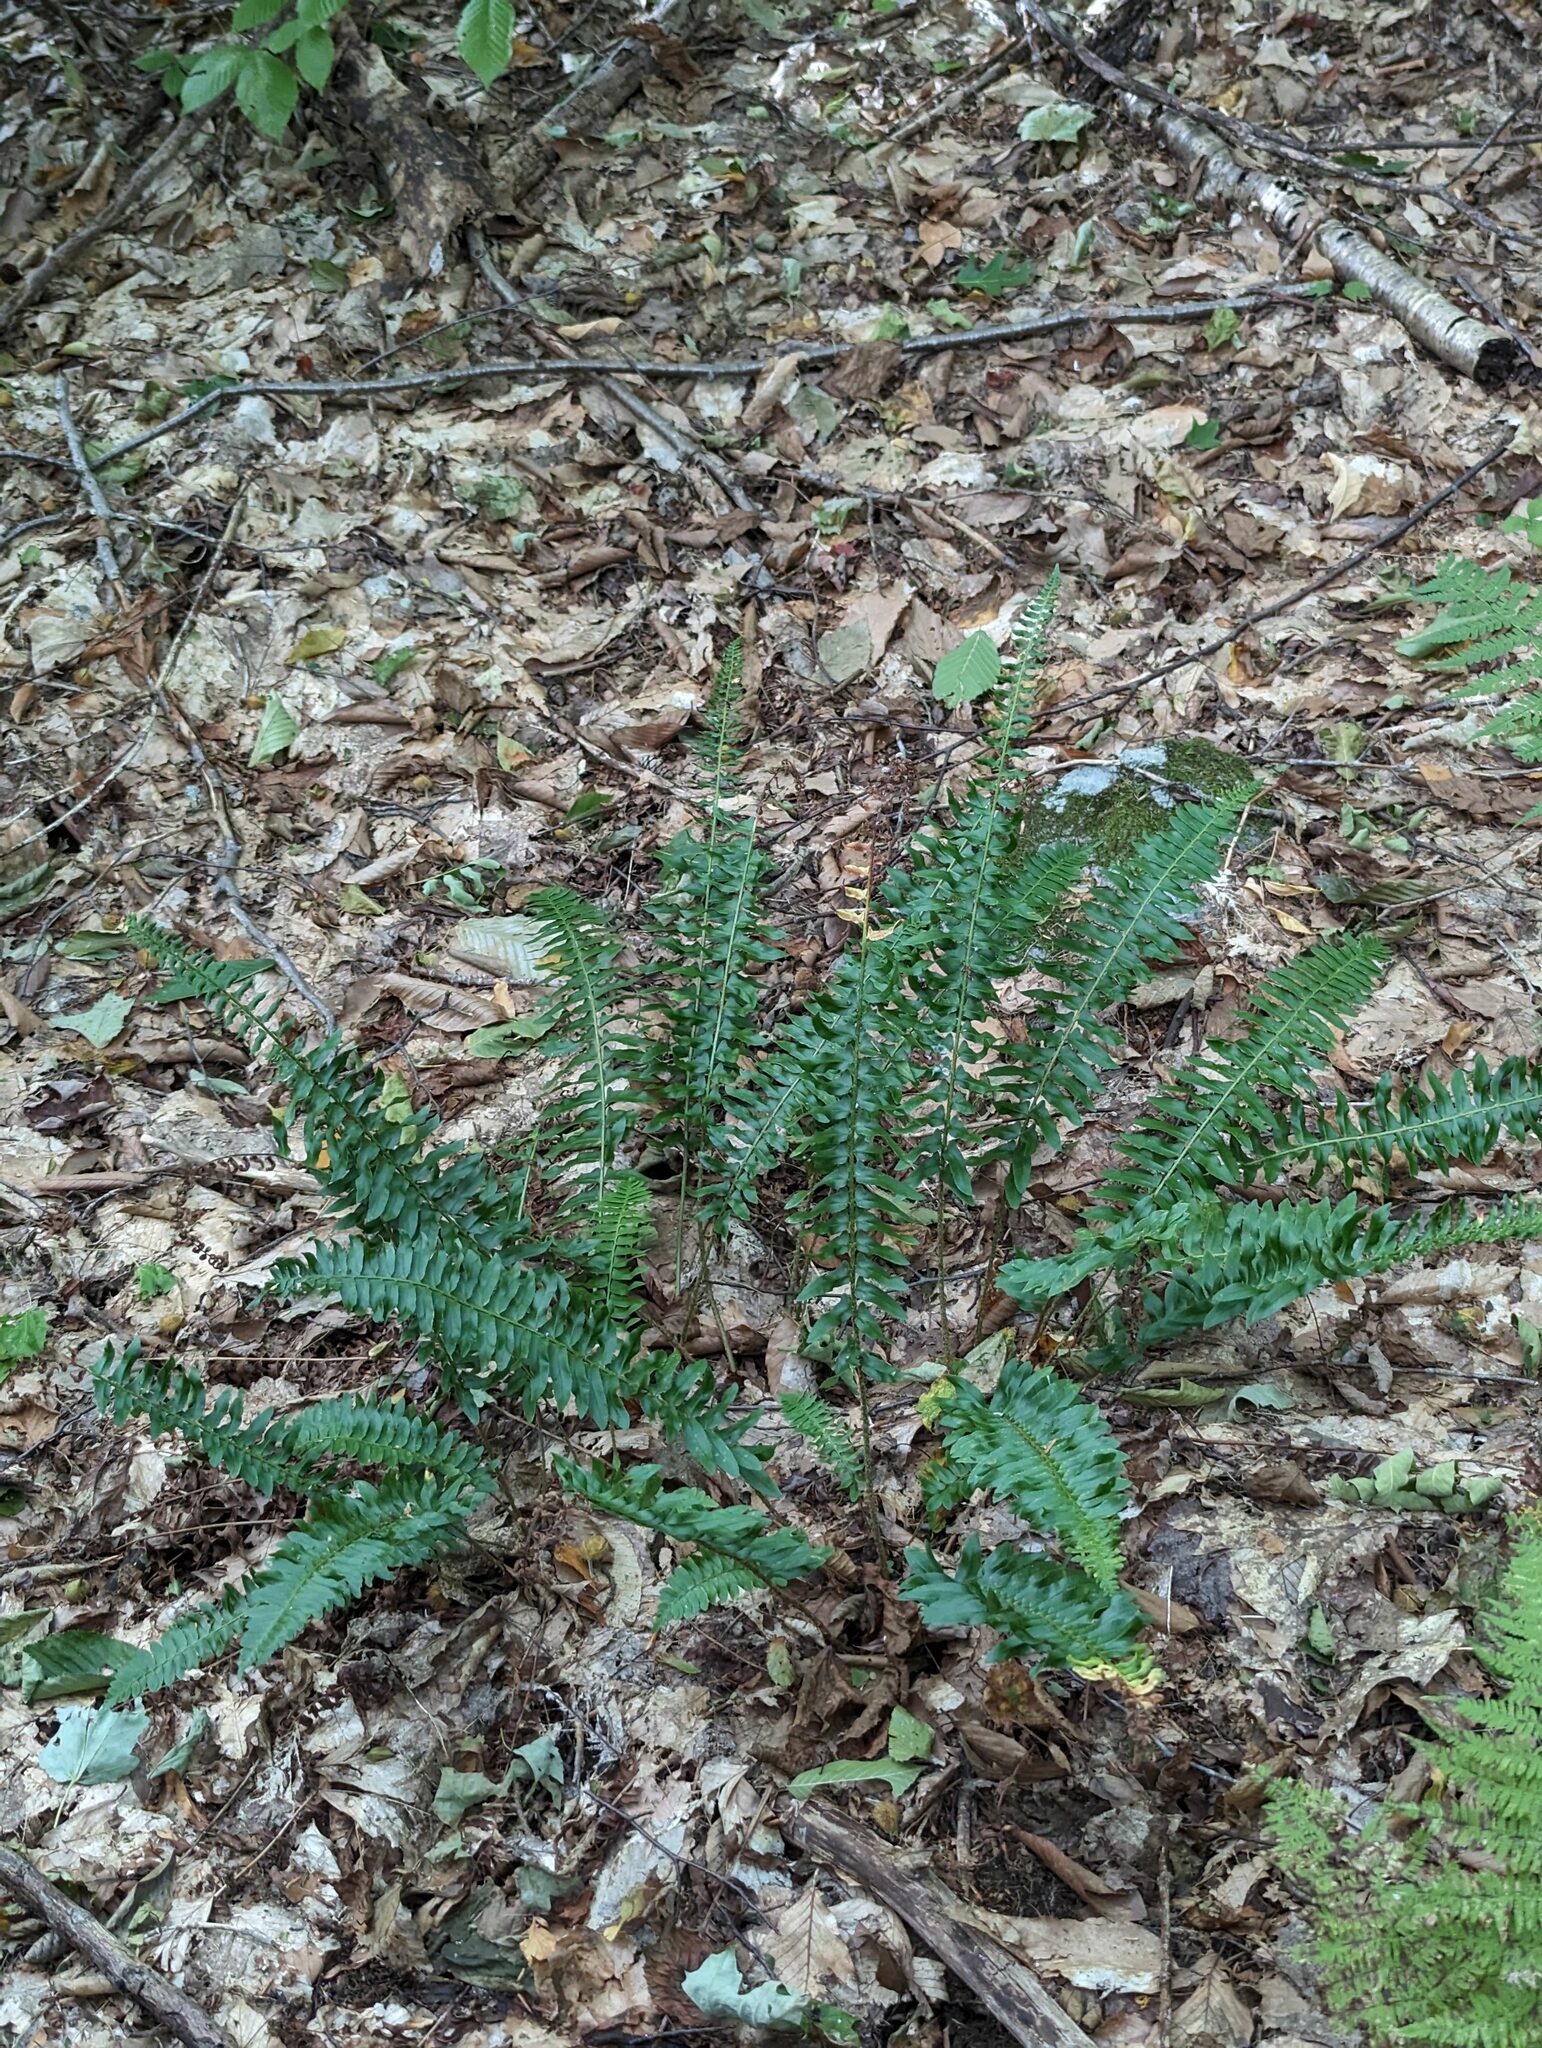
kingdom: Plantae
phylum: Tracheophyta
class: Polypodiopsida
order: Polypodiales
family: Dryopteridaceae
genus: Polystichum
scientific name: Polystichum acrostichoides
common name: Christmas fern
